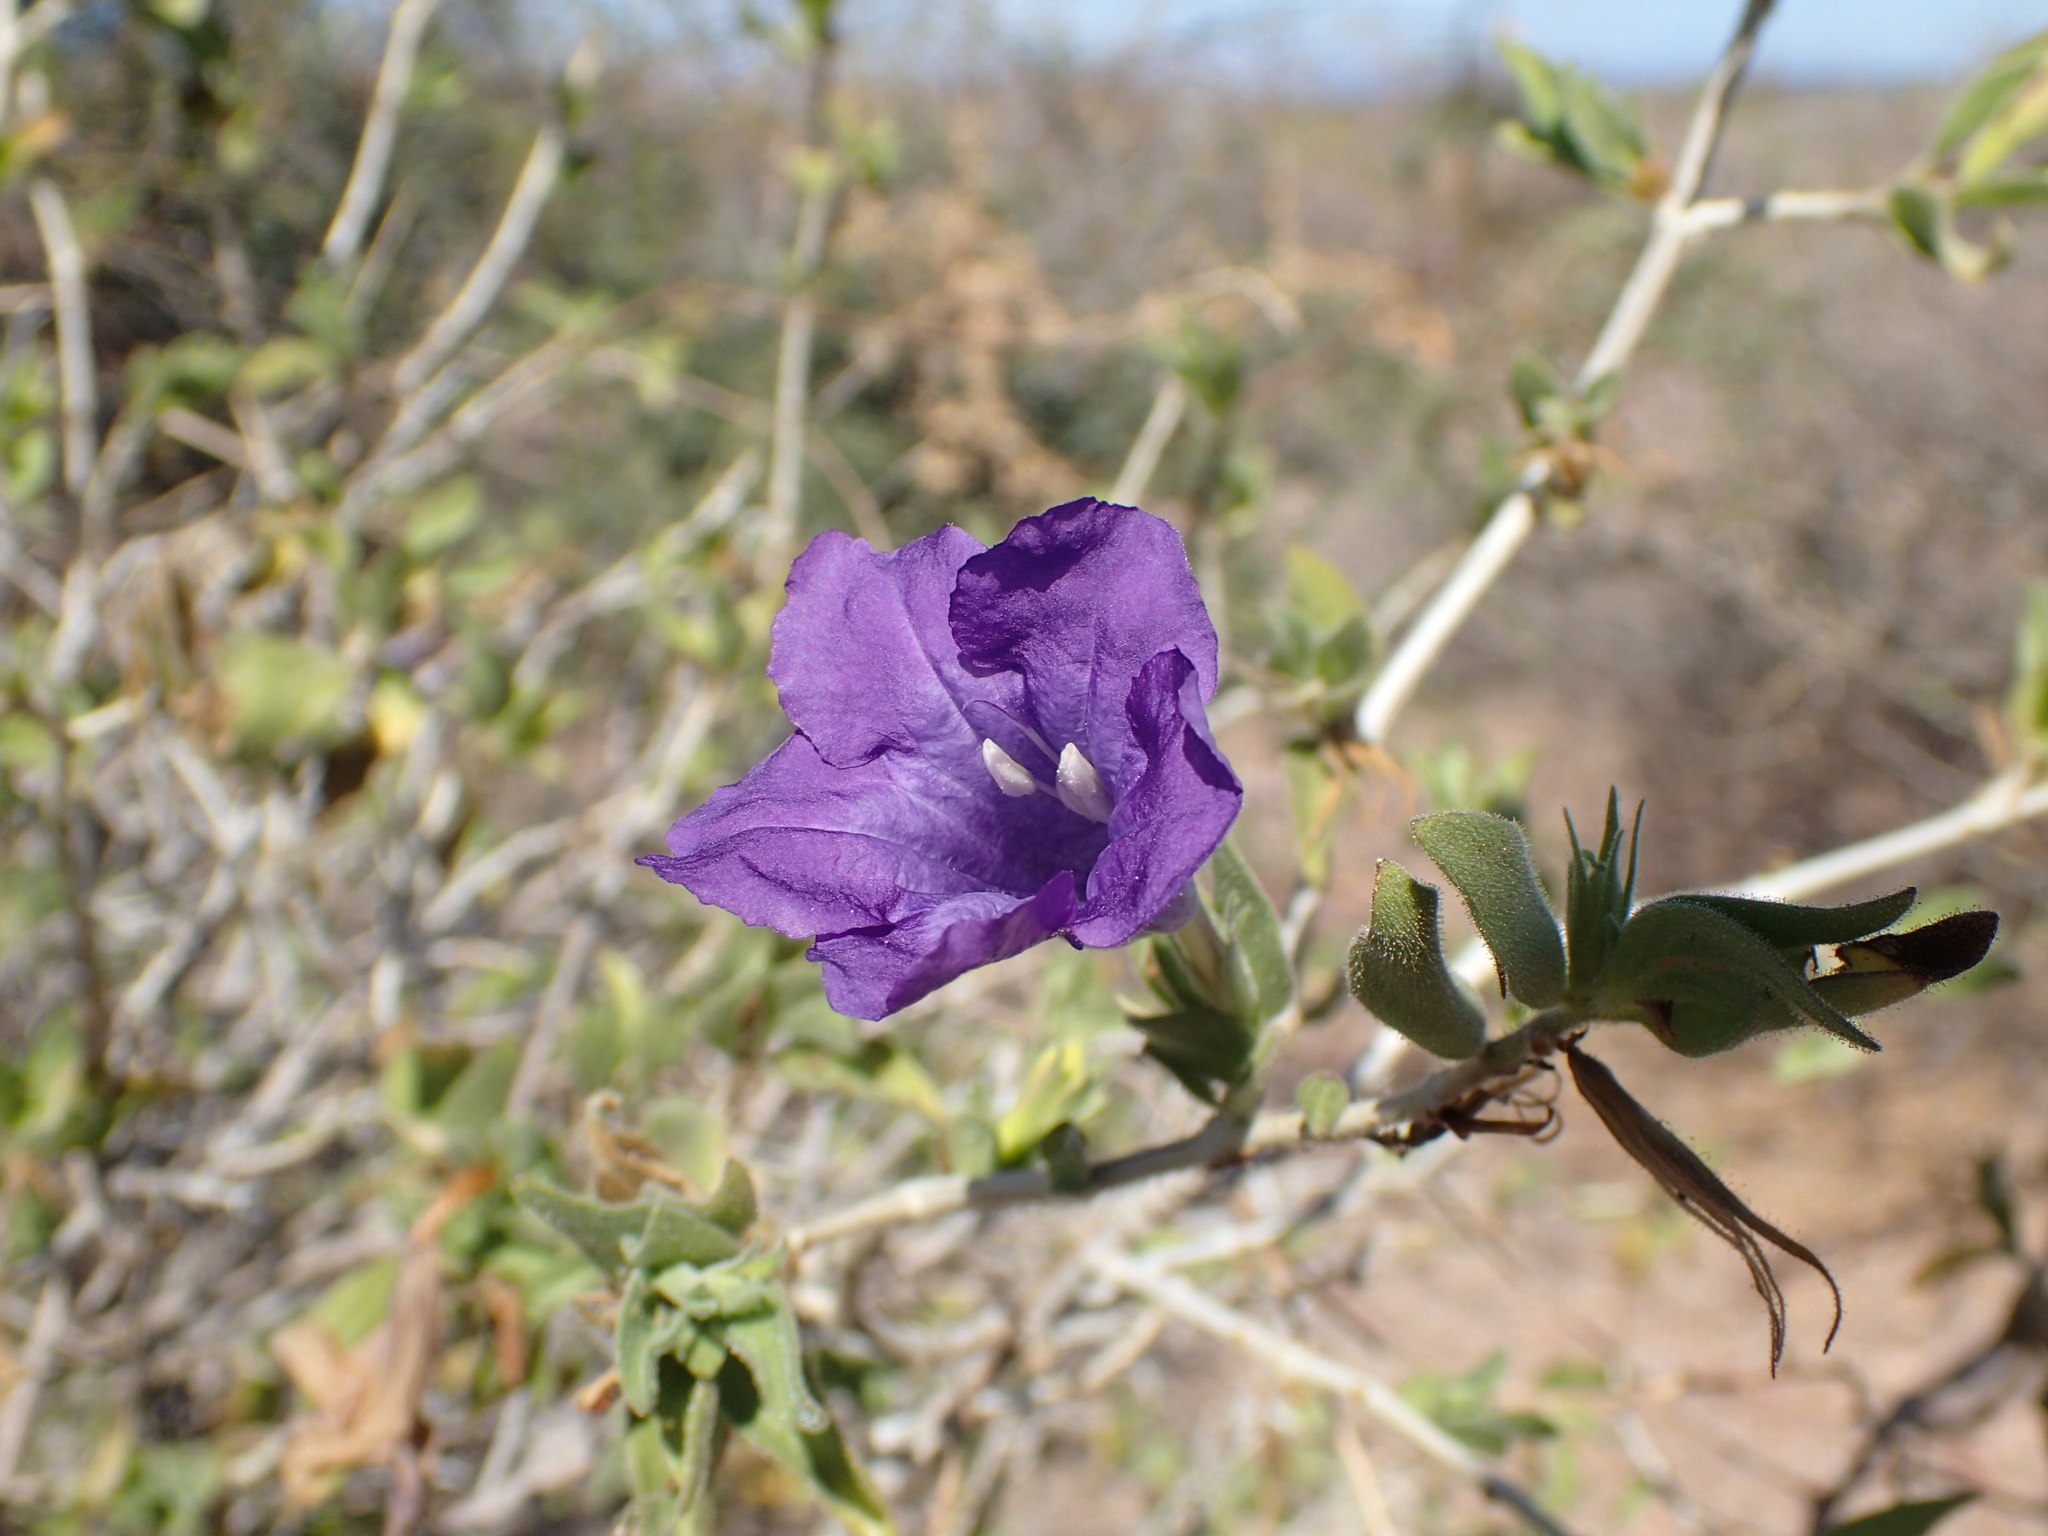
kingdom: Plantae
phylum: Tracheophyta
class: Magnoliopsida
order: Lamiales
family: Acanthaceae
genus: Ruellia
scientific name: Ruellia californica
